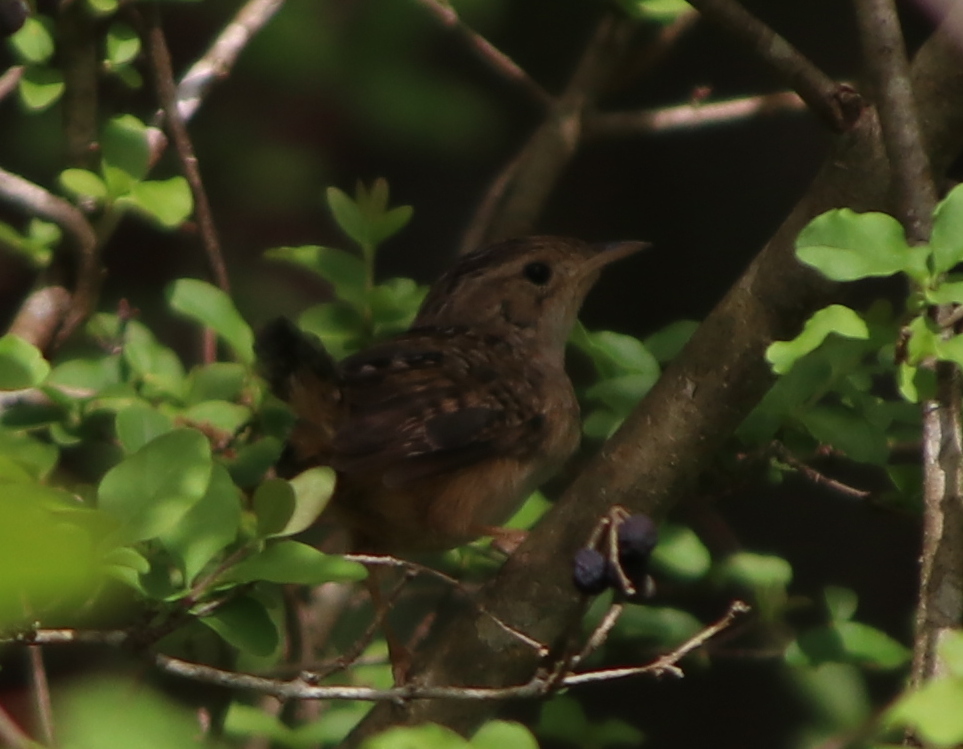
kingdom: Animalia
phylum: Chordata
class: Aves
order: Passeriformes
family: Troglodytidae
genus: Cistothorus
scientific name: Cistothorus platensis
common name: Sedge wren
